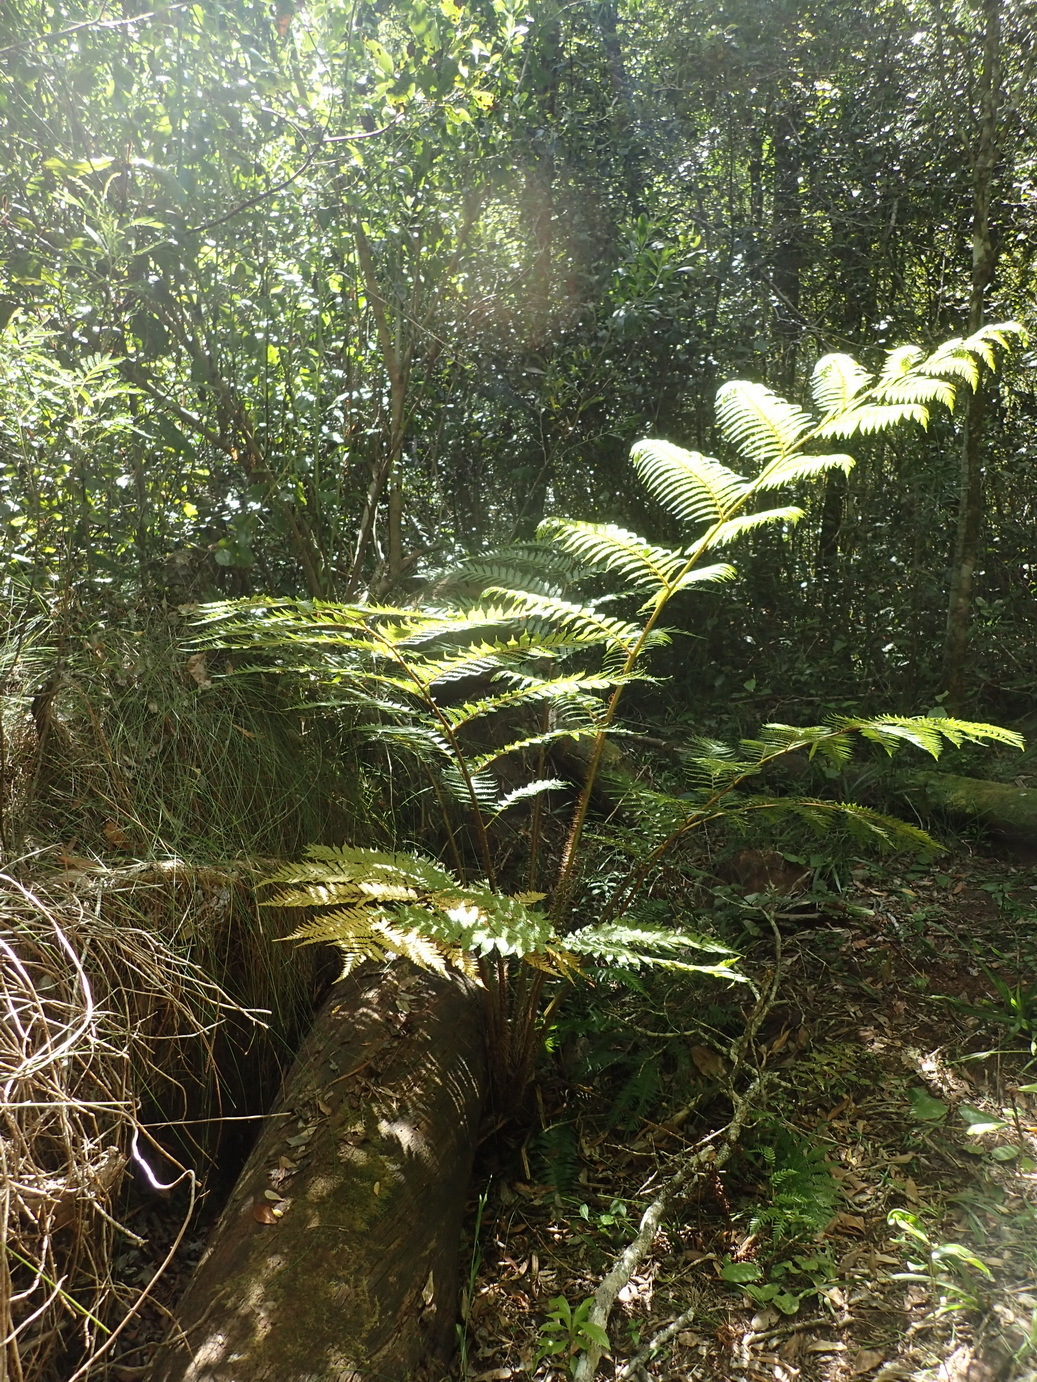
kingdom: Plantae
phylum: Tracheophyta
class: Polypodiopsida
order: Cyatheales
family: Cyatheaceae
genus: Sphaeropteris
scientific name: Sphaeropteris cooperi
